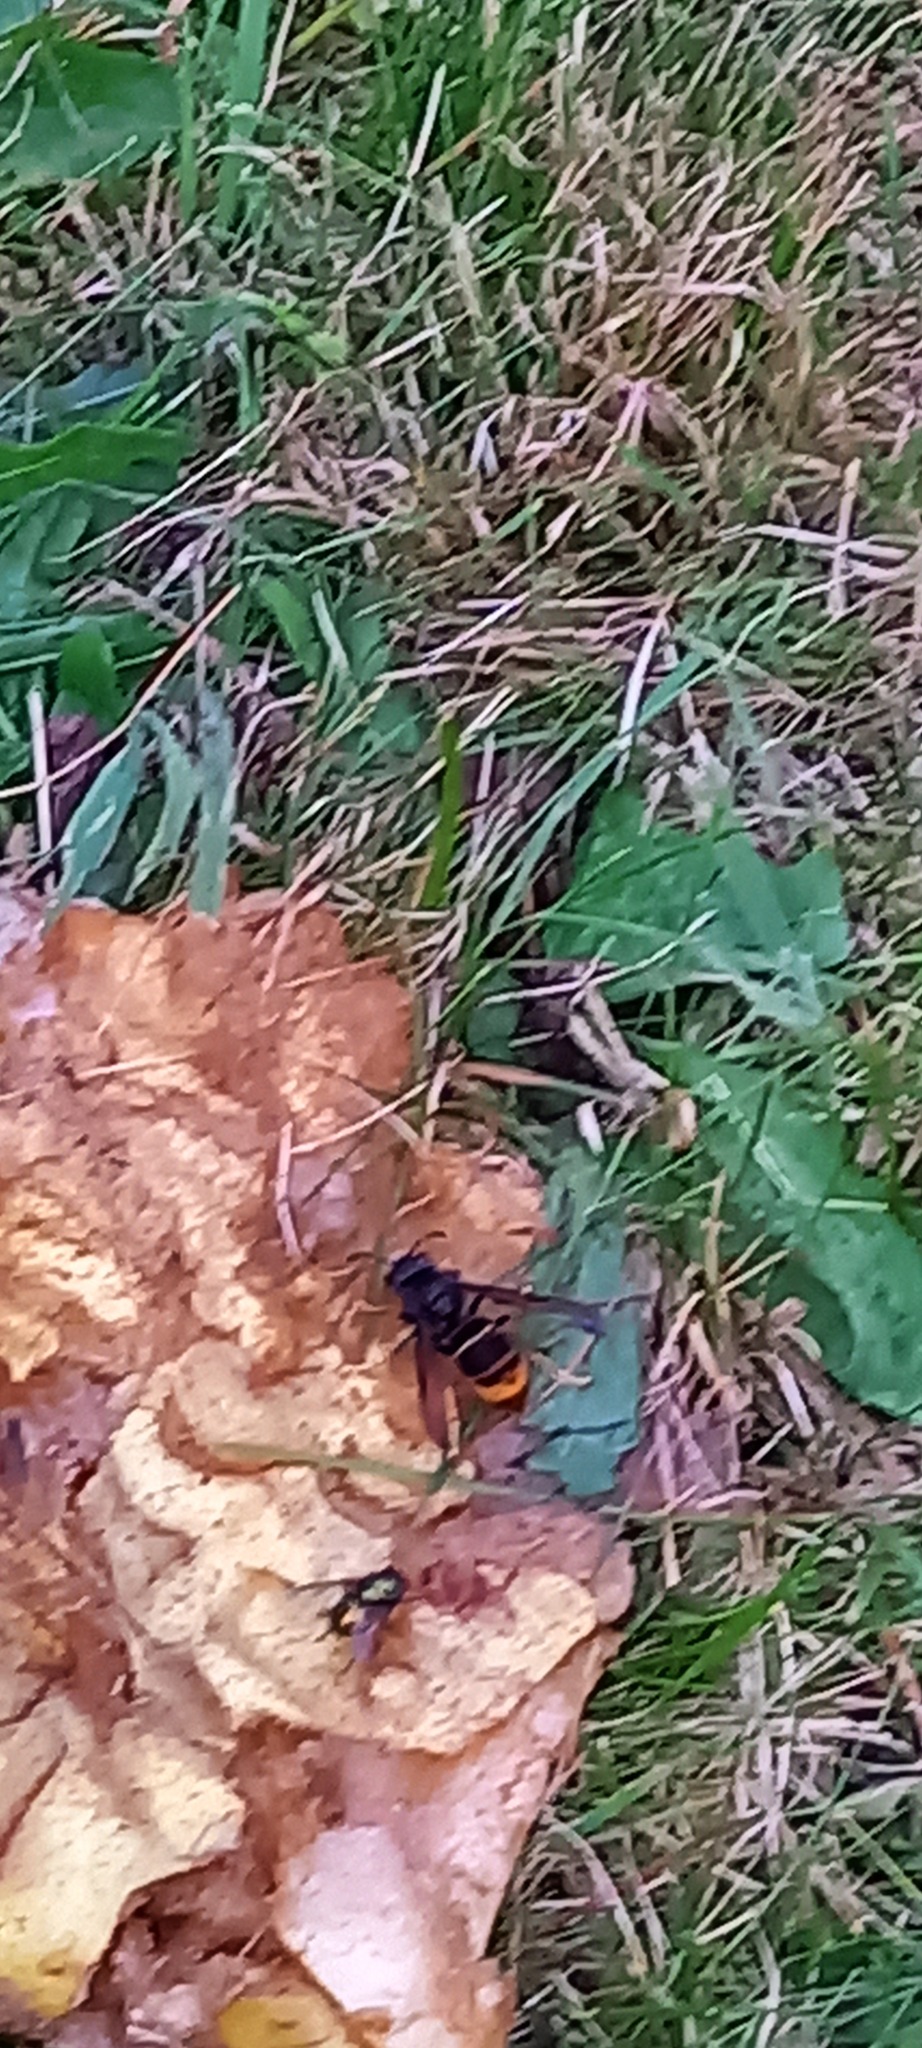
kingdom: Animalia
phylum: Arthropoda
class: Insecta
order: Hymenoptera
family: Vespidae
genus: Vespa
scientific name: Vespa velutina
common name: Asian hornet
